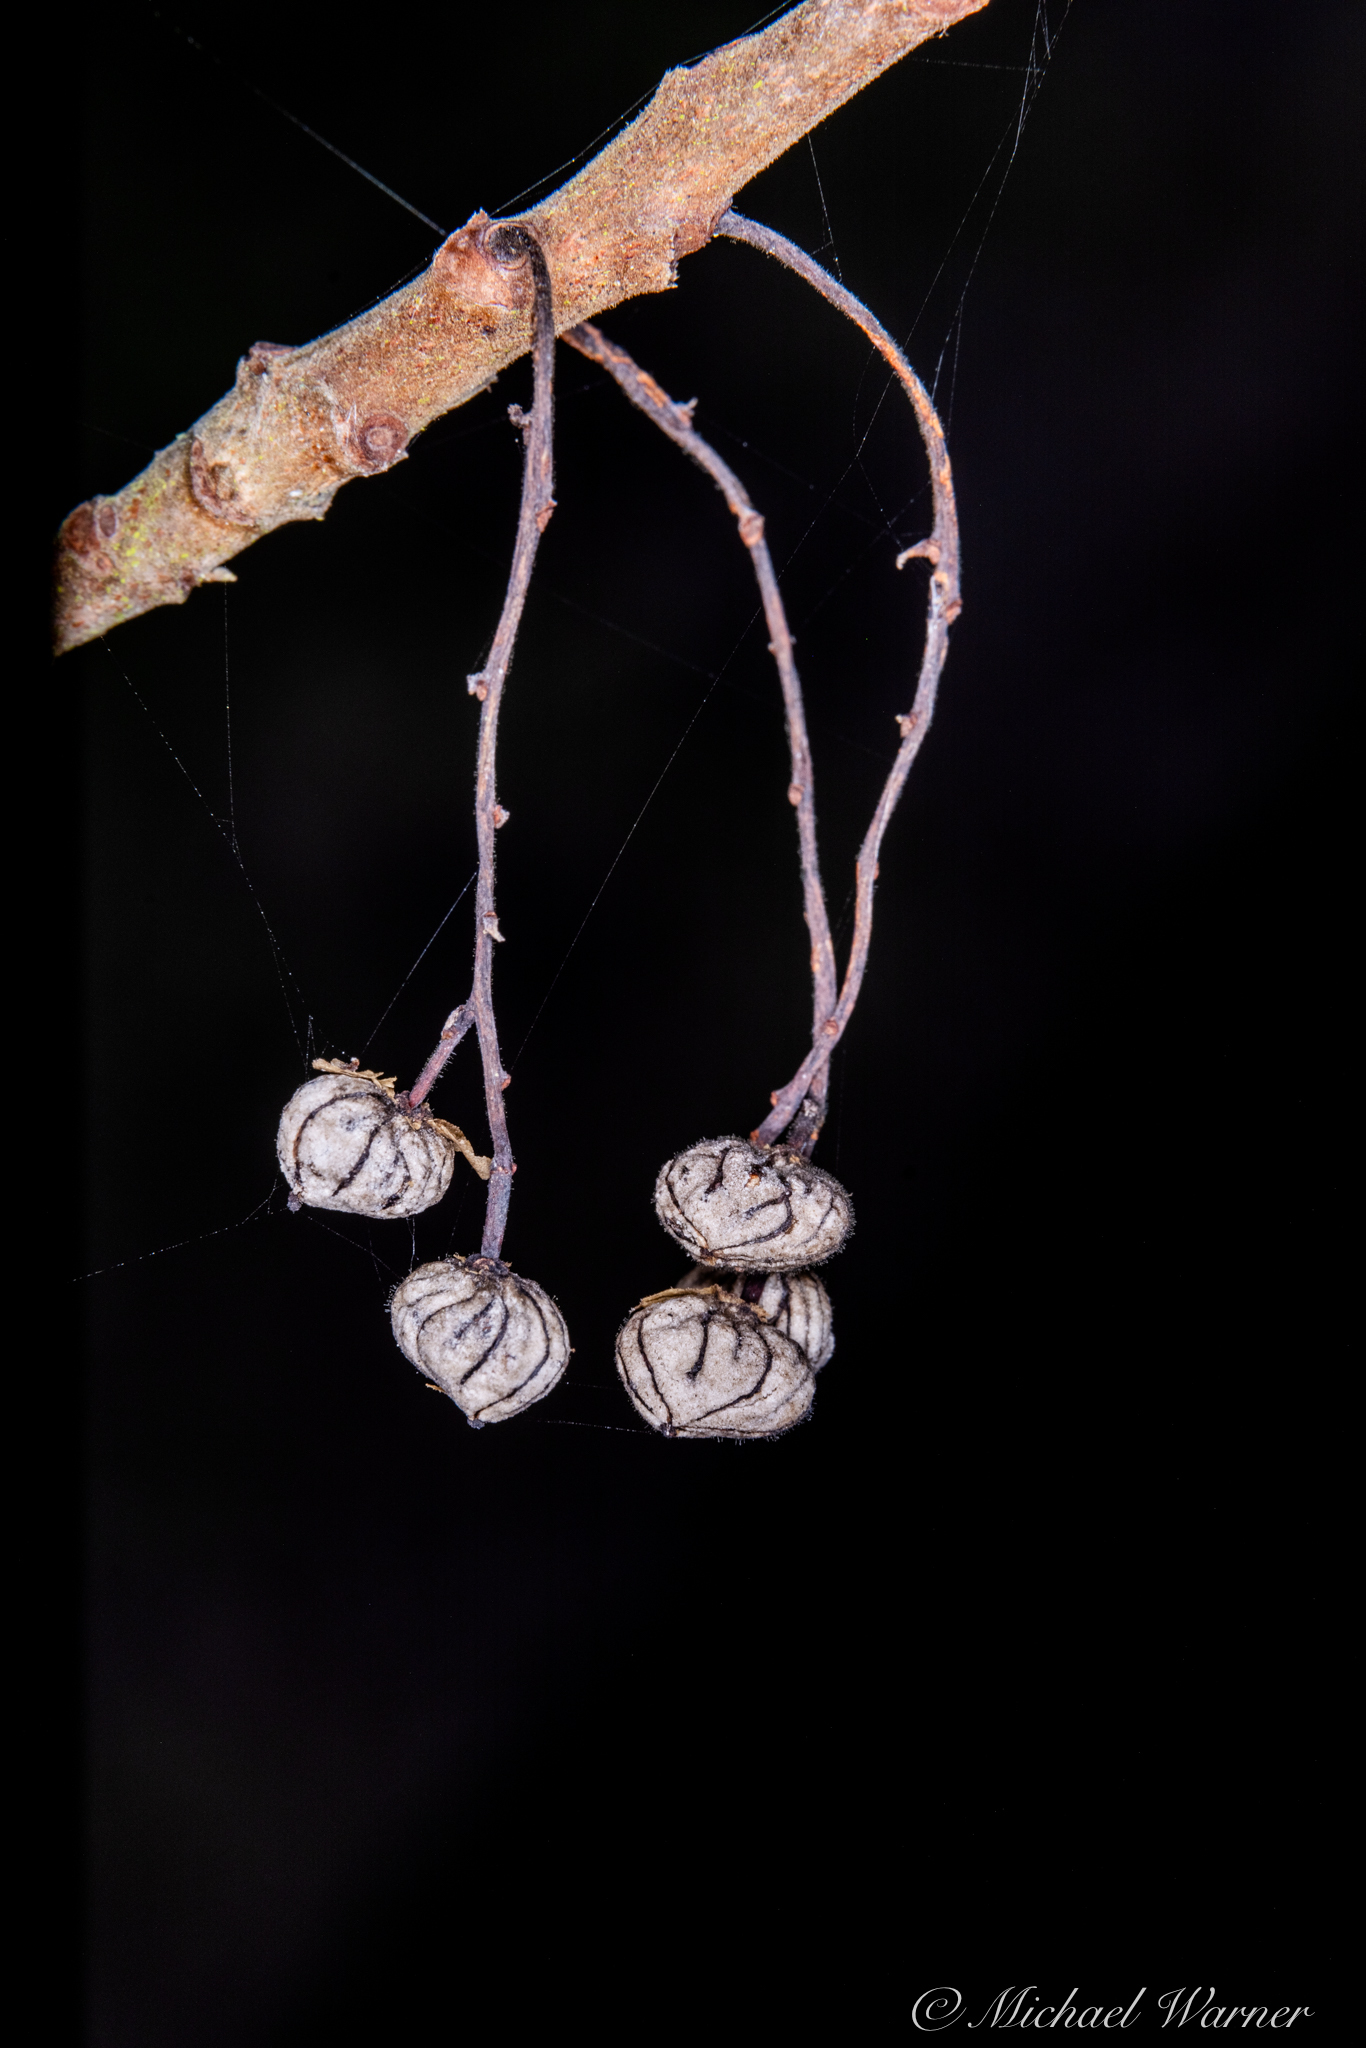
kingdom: Plantae
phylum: Tracheophyta
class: Magnoliopsida
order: Sapindales
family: Anacardiaceae
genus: Toxicodendron
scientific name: Toxicodendron diversilobum
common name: Pacific poison-oak
